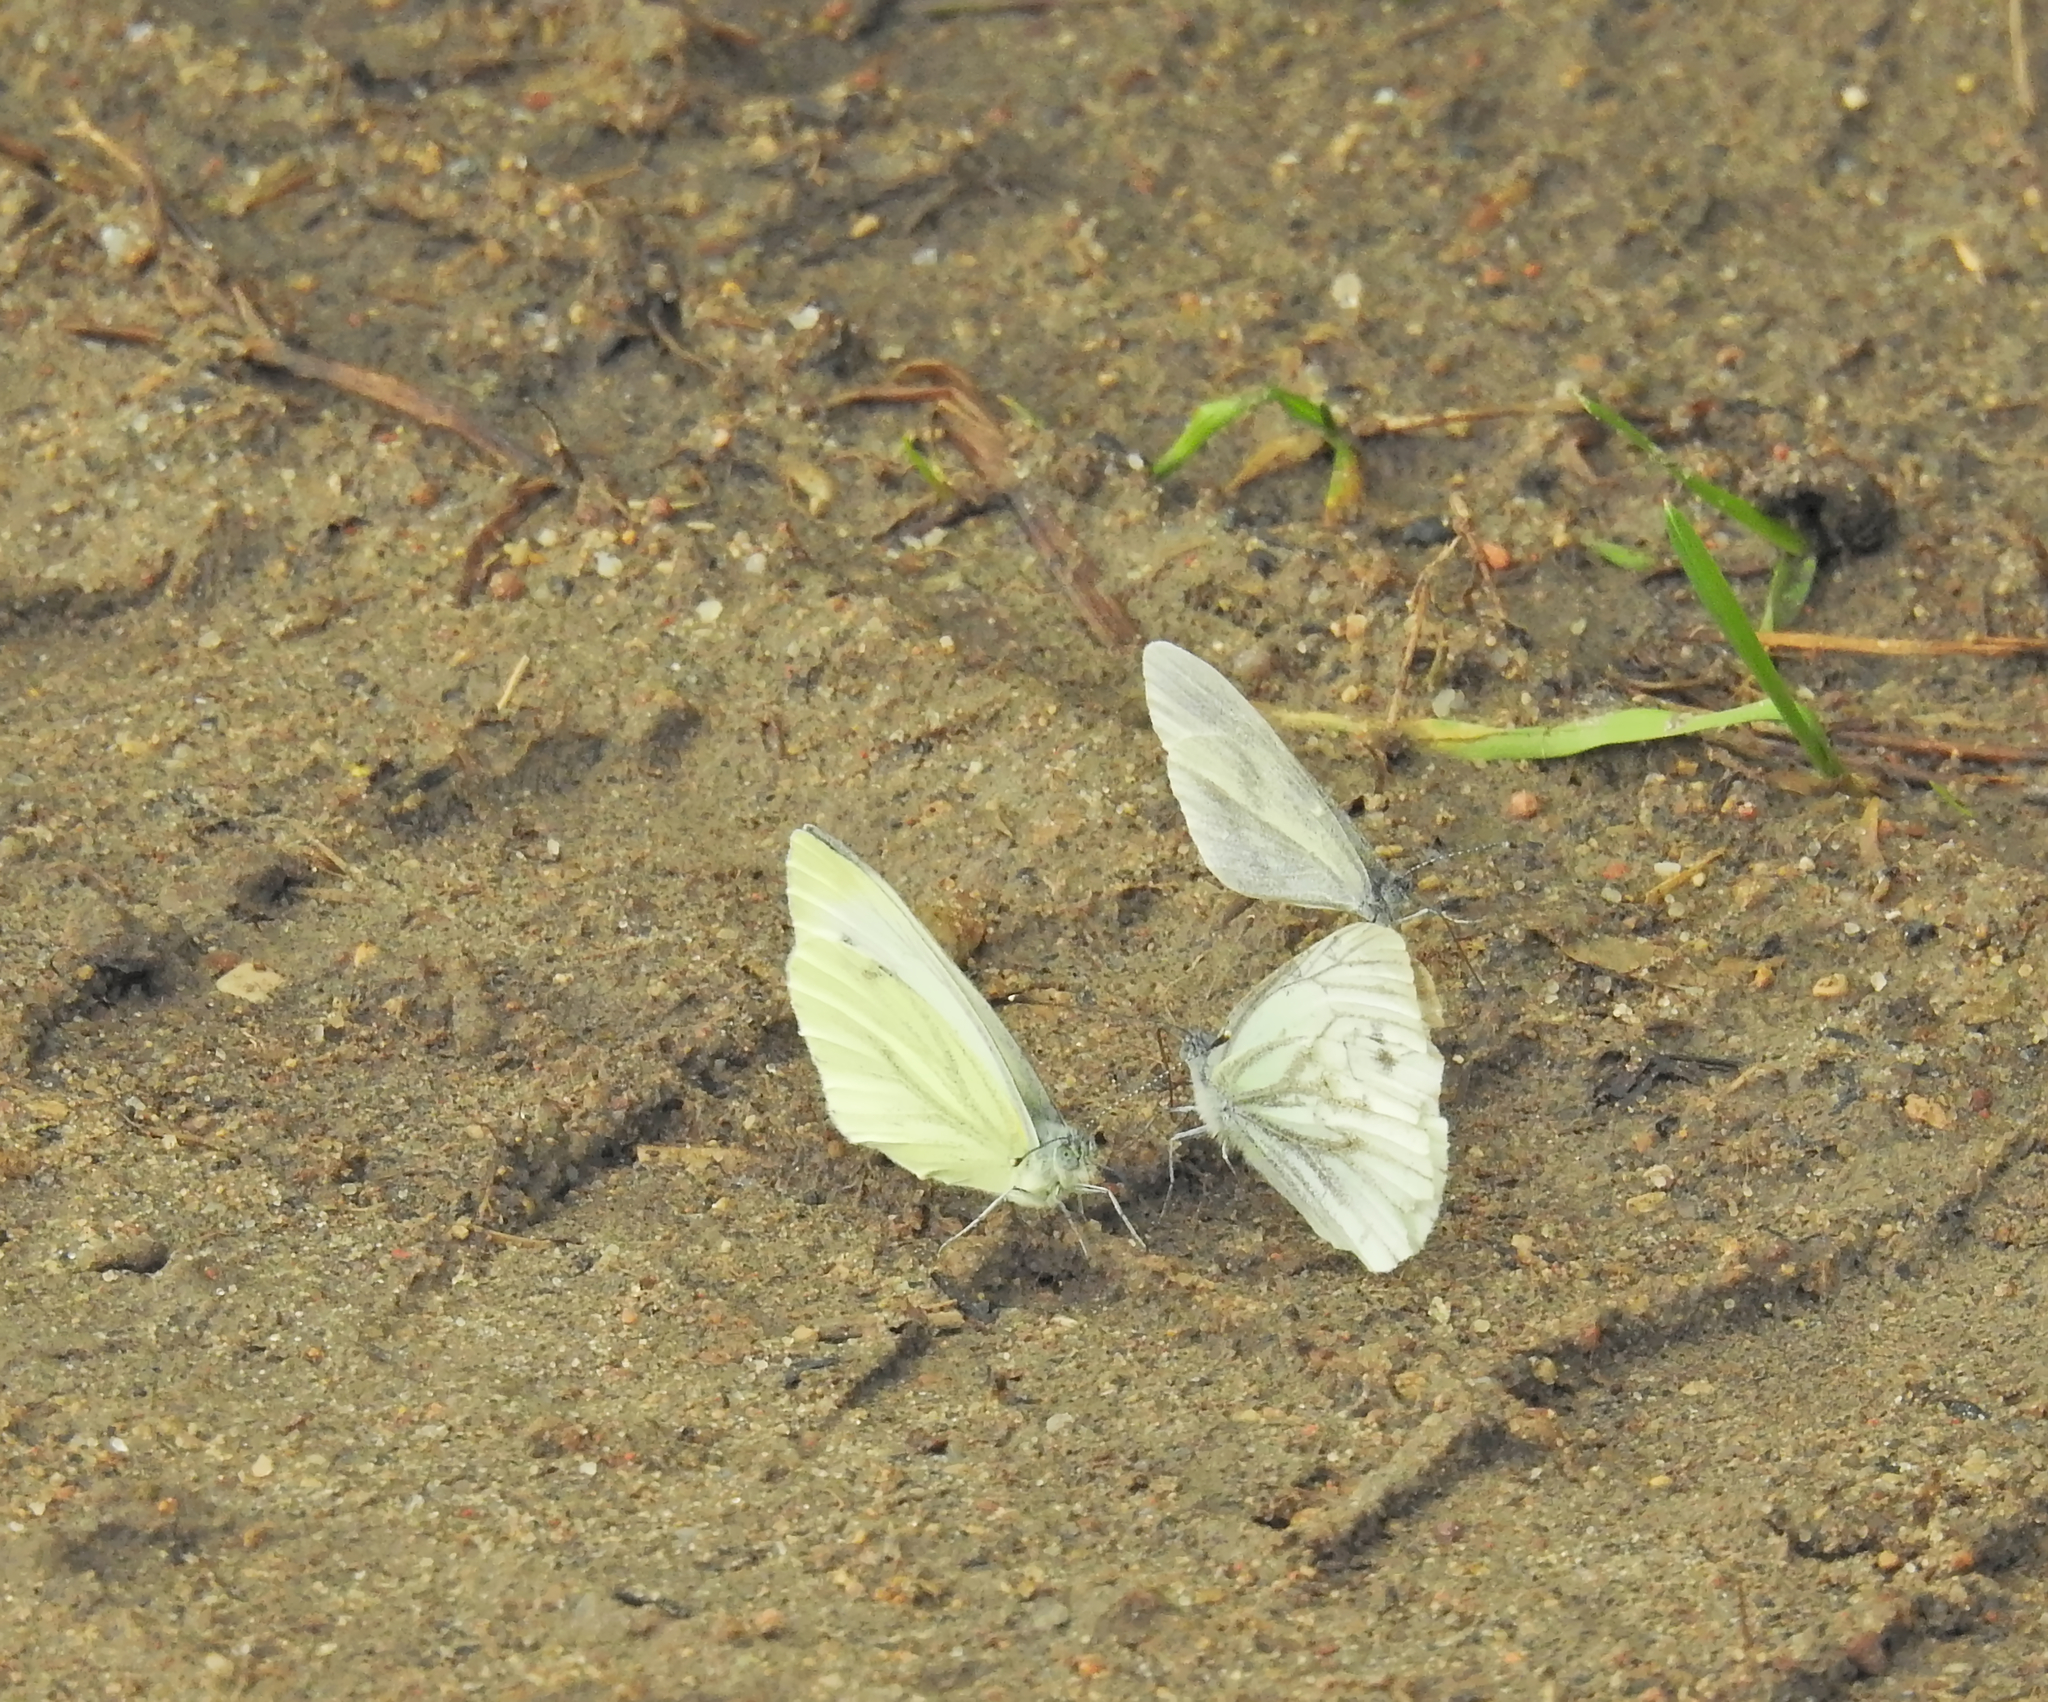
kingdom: Animalia
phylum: Arthropoda
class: Insecta
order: Lepidoptera
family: Pieridae
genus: Pieris
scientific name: Pieris napi
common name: Green-veined white
